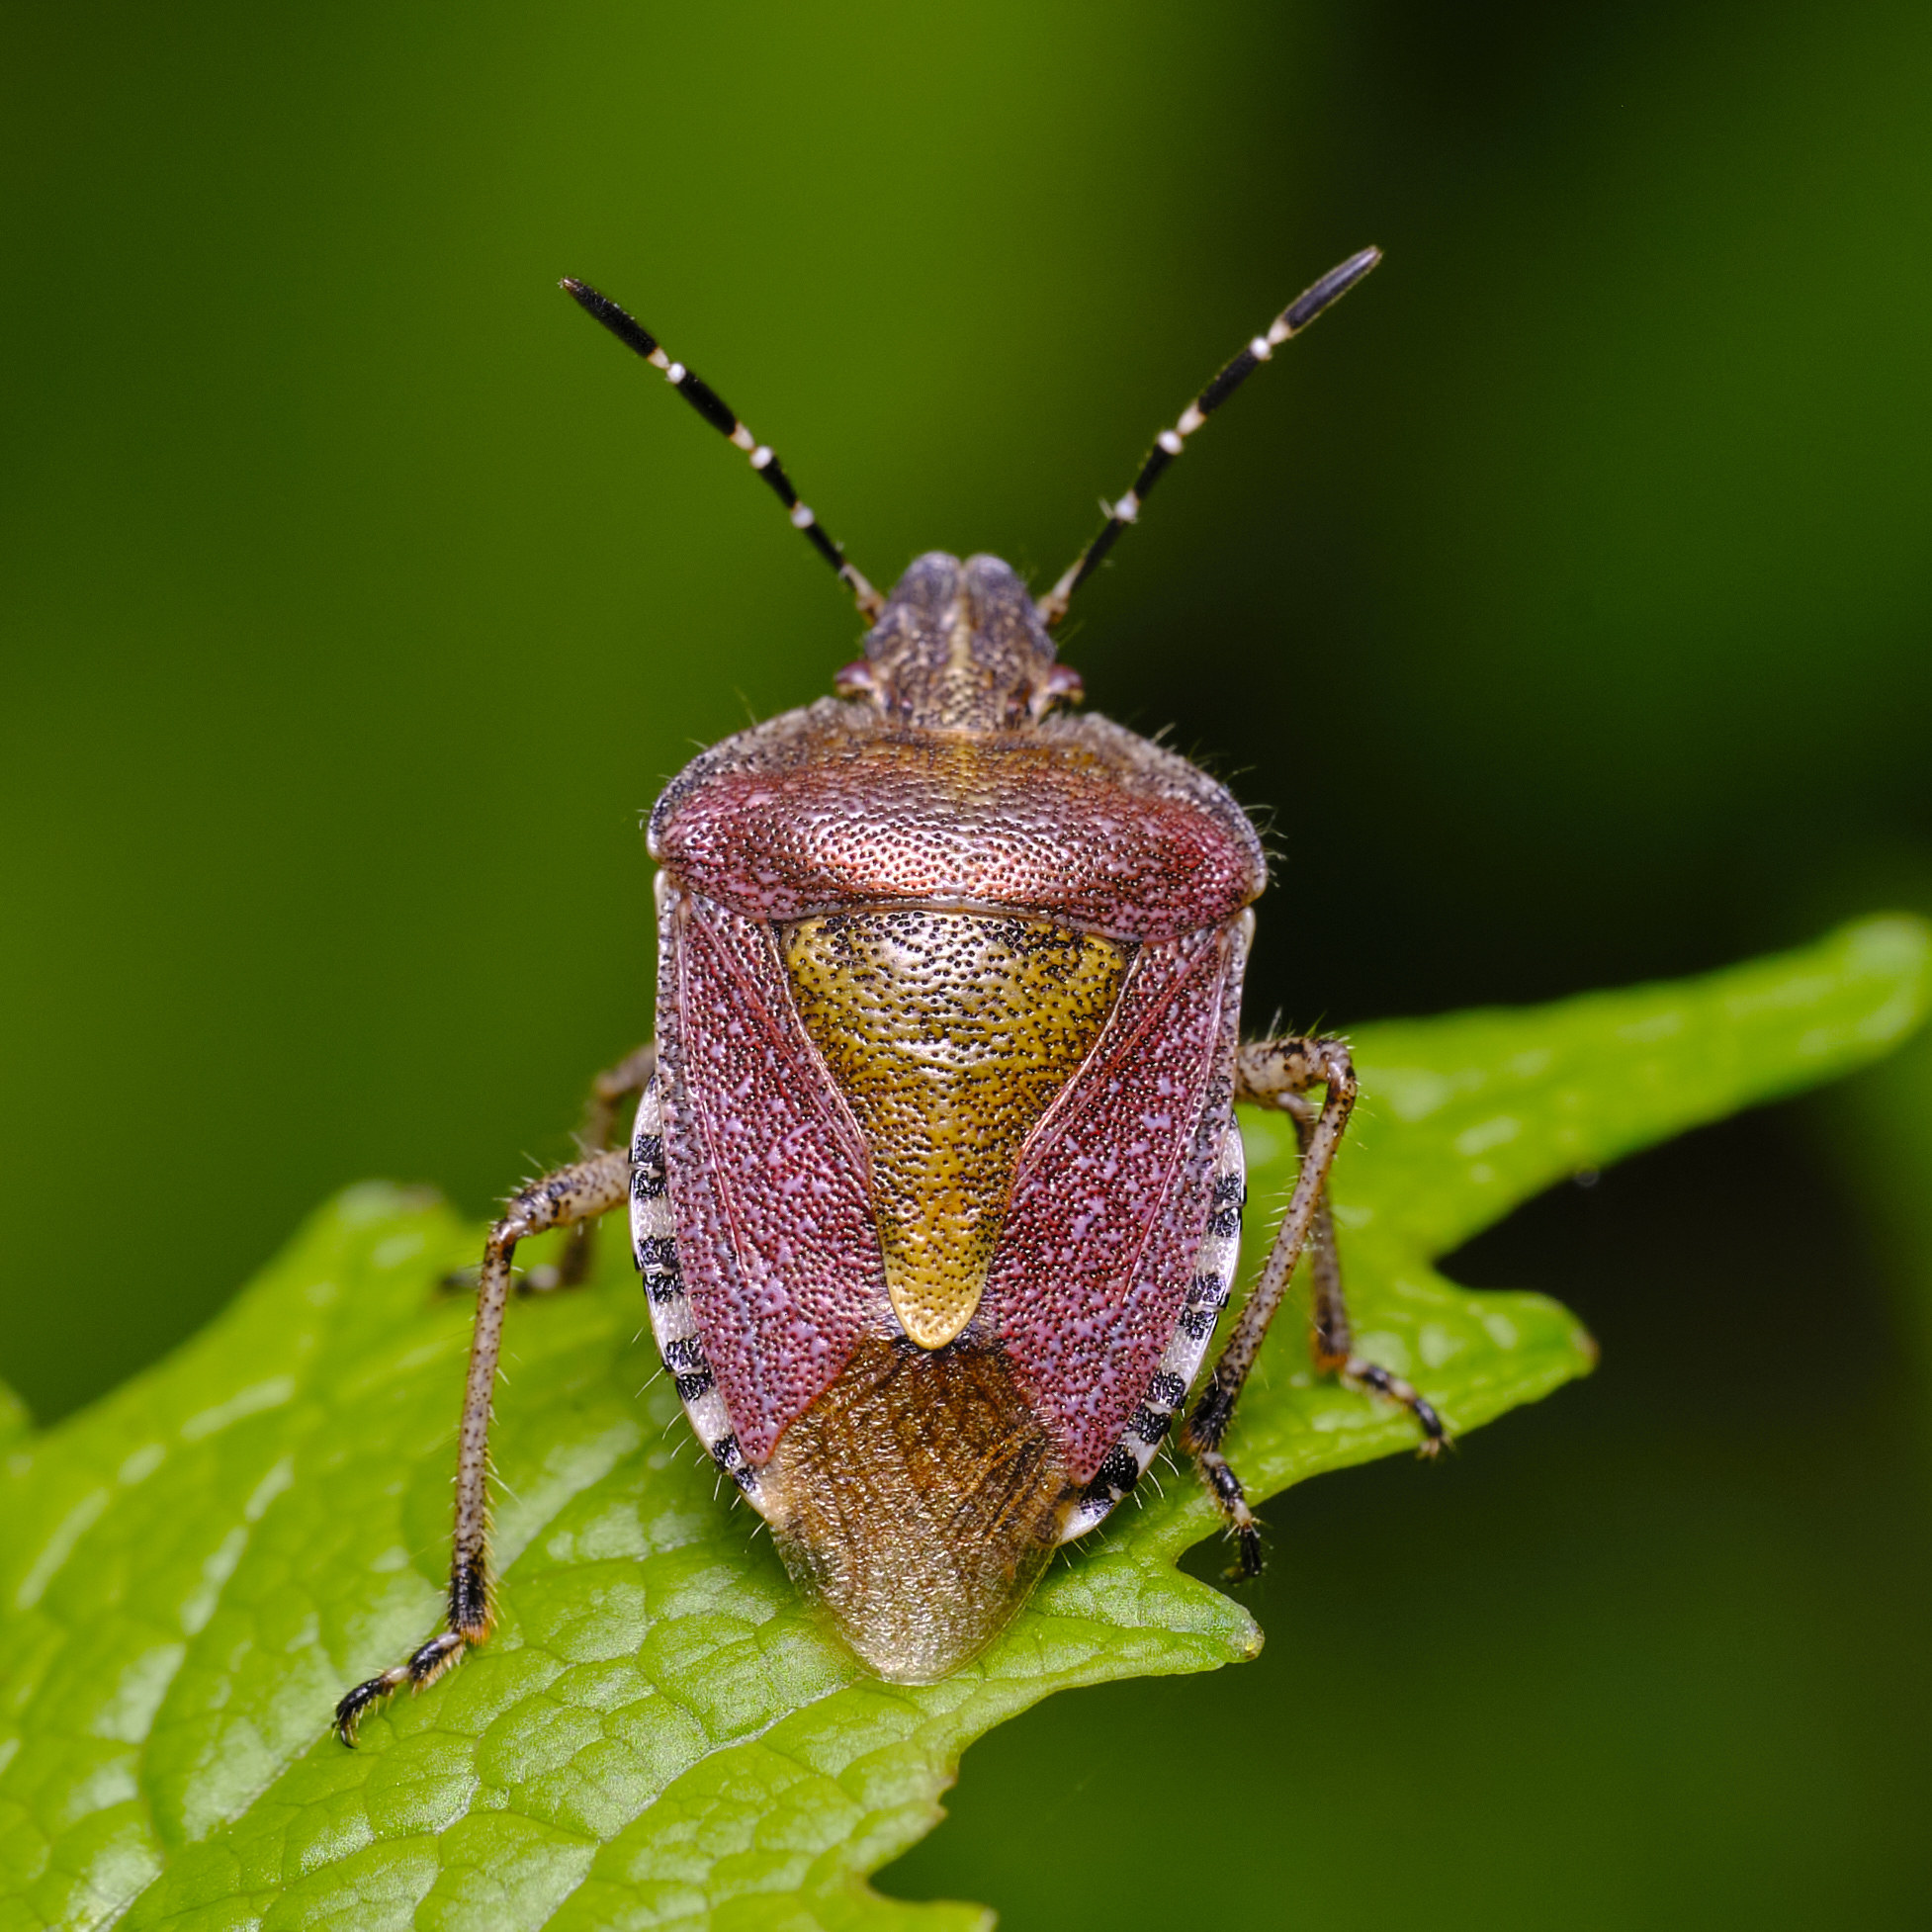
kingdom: Animalia
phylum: Arthropoda
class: Insecta
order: Hemiptera
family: Pentatomidae
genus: Dolycoris
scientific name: Dolycoris baccarum
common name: Sloe bug
